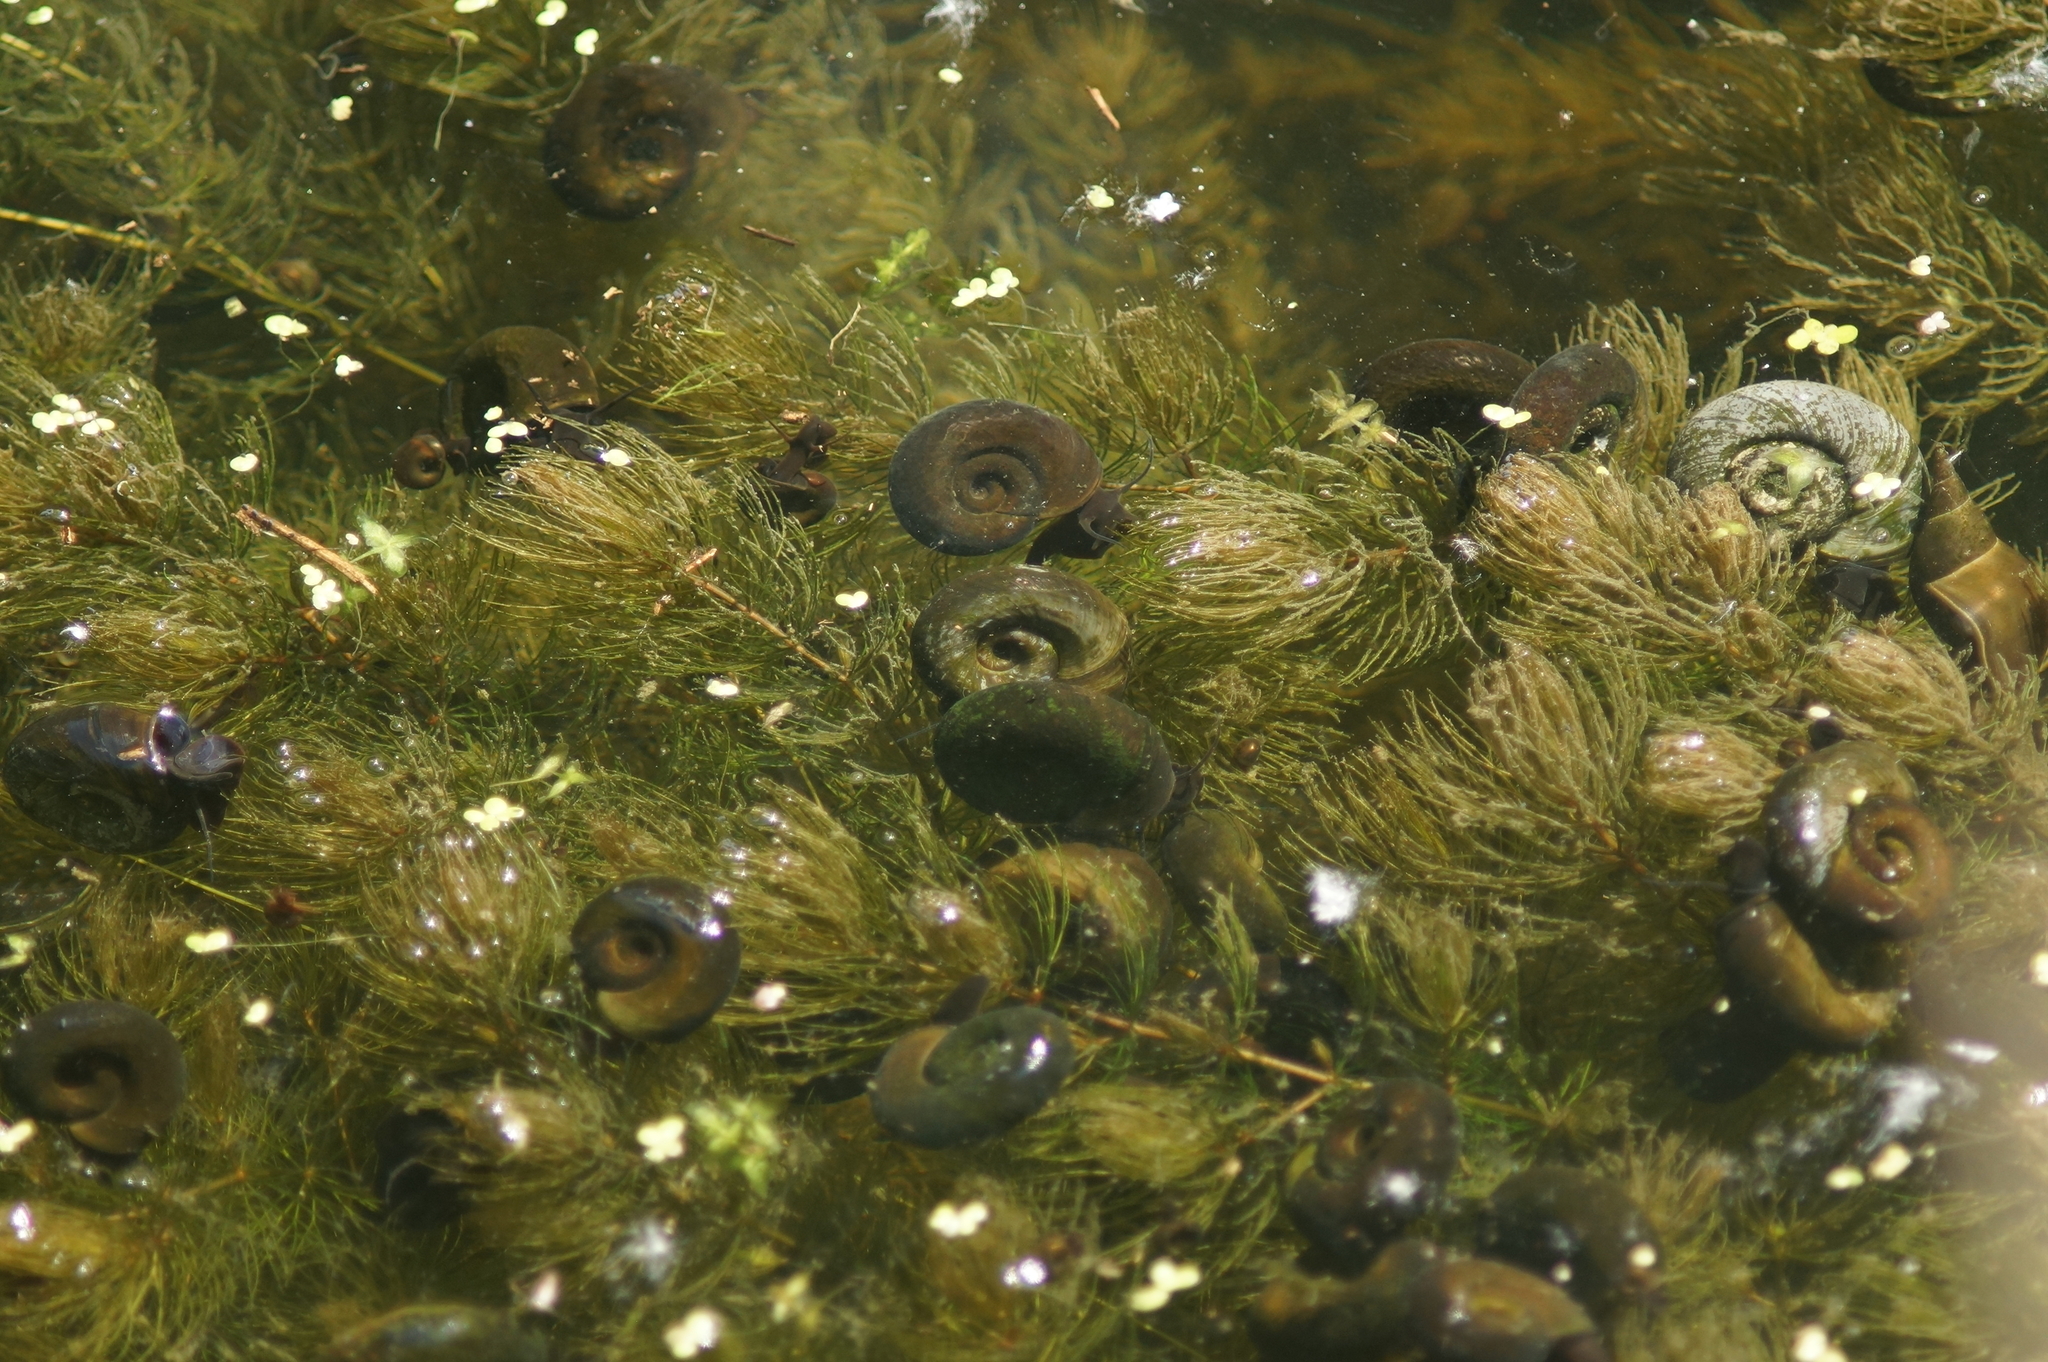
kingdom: Animalia
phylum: Mollusca
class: Gastropoda
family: Planorbidae
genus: Planorbarius
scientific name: Planorbarius corneus
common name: Great ramshorn
